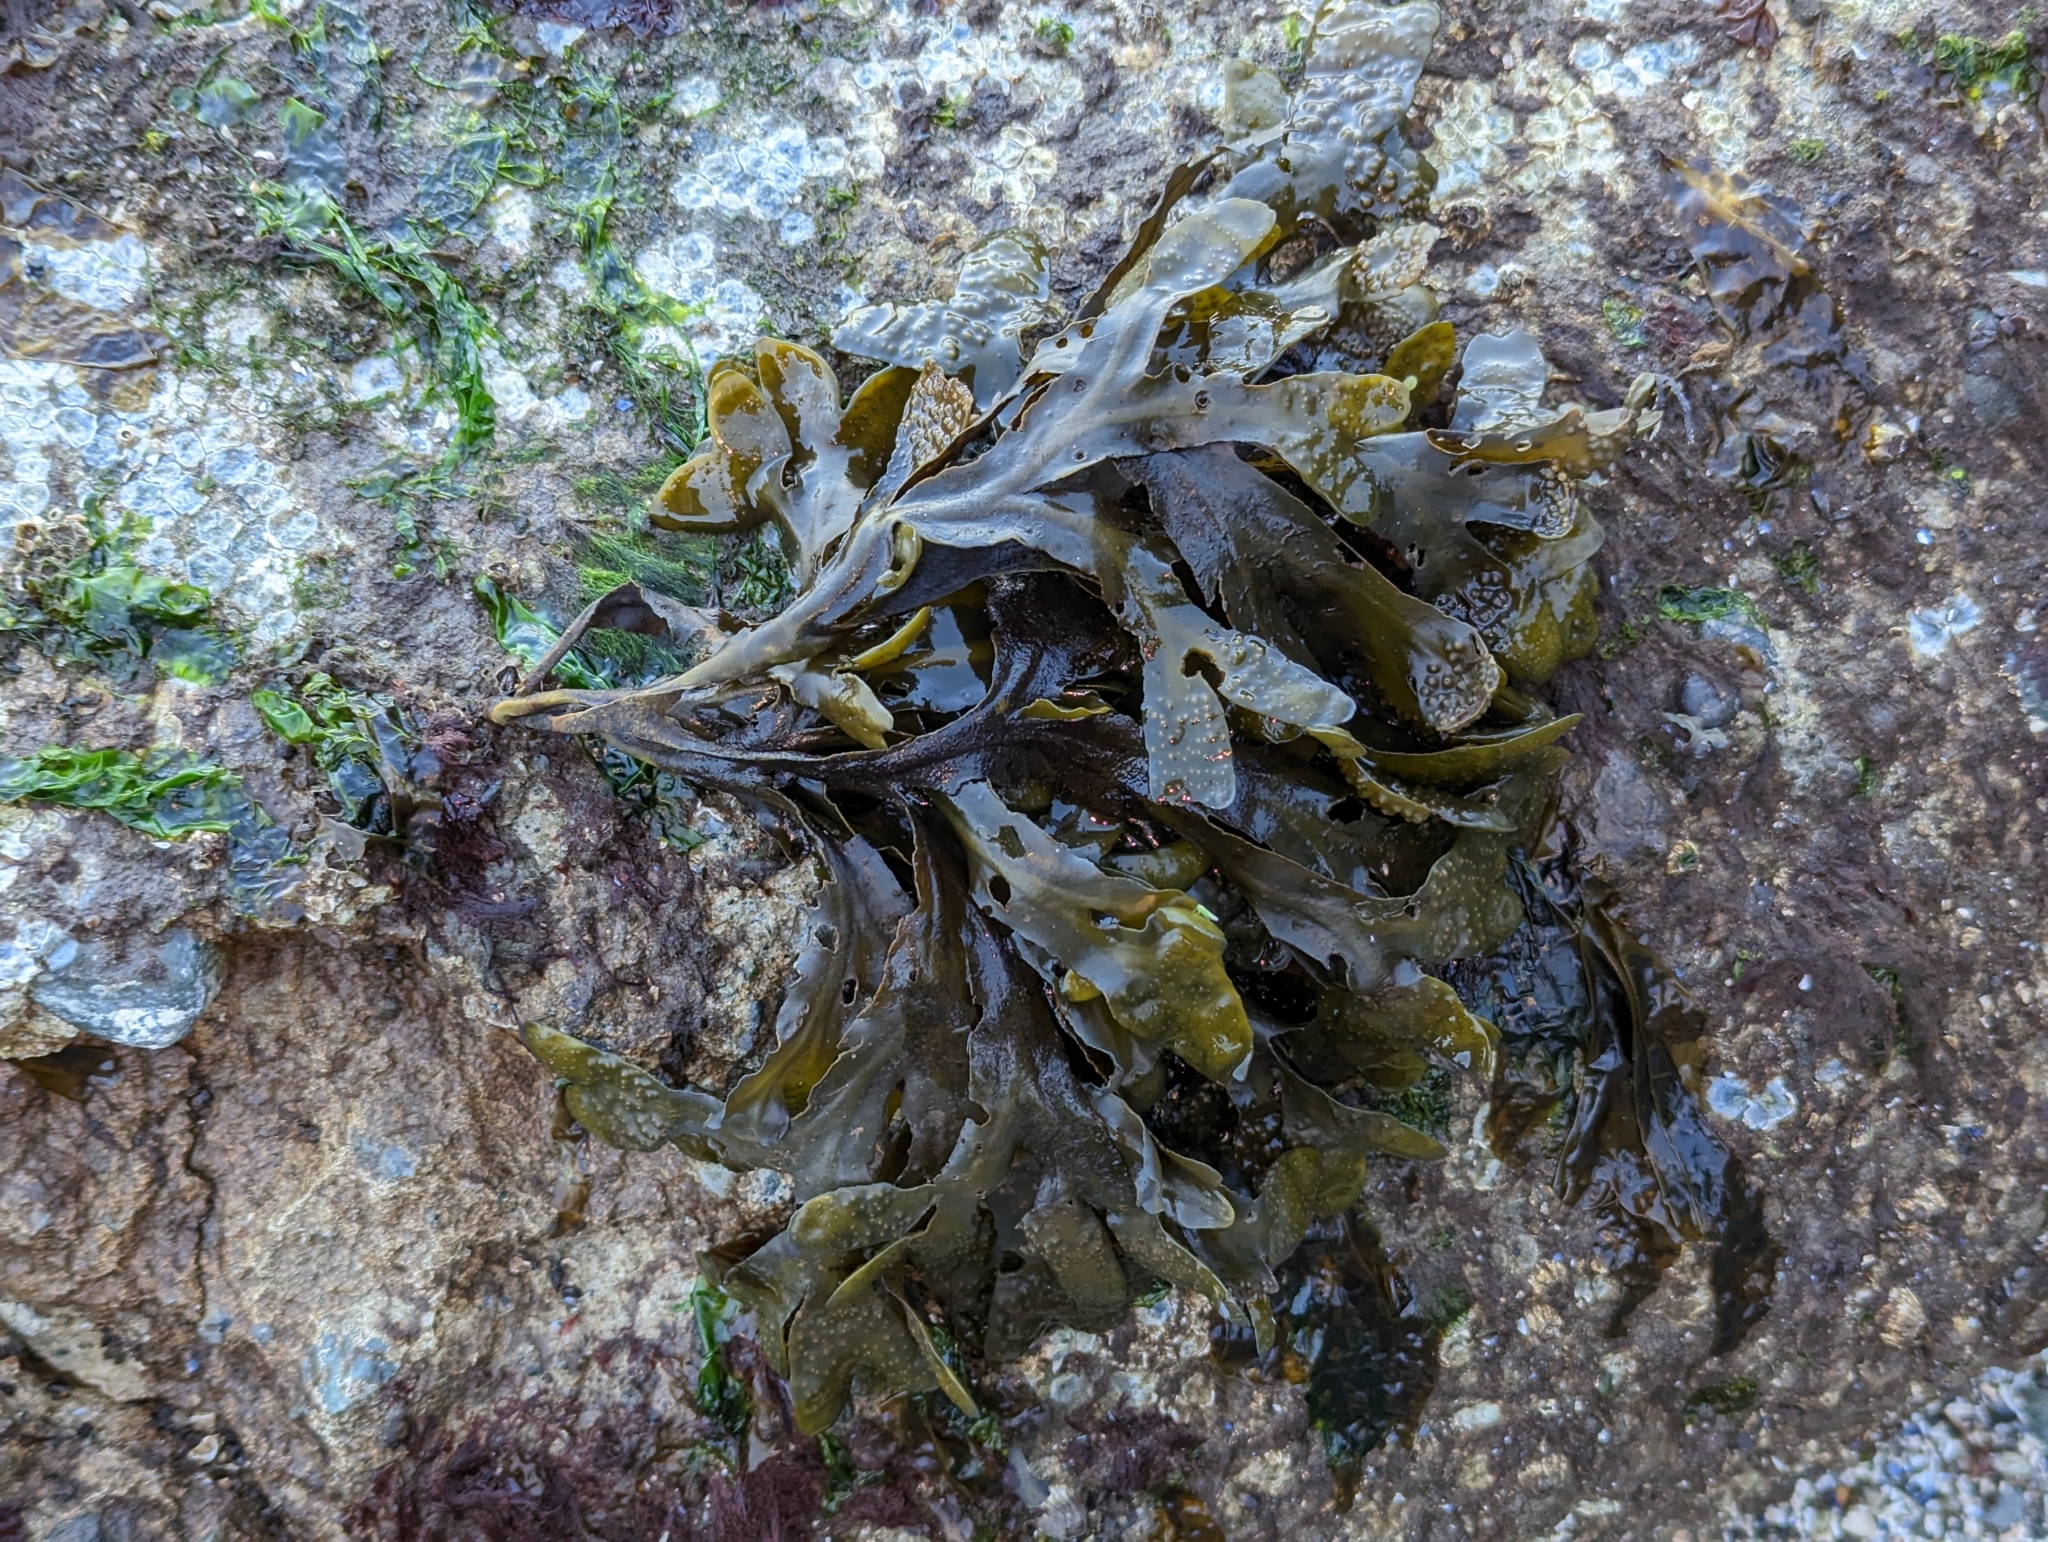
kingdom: Chromista
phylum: Ochrophyta
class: Phaeophyceae
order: Fucales
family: Fucaceae
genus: Fucus
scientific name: Fucus distichus
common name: Rockweed
